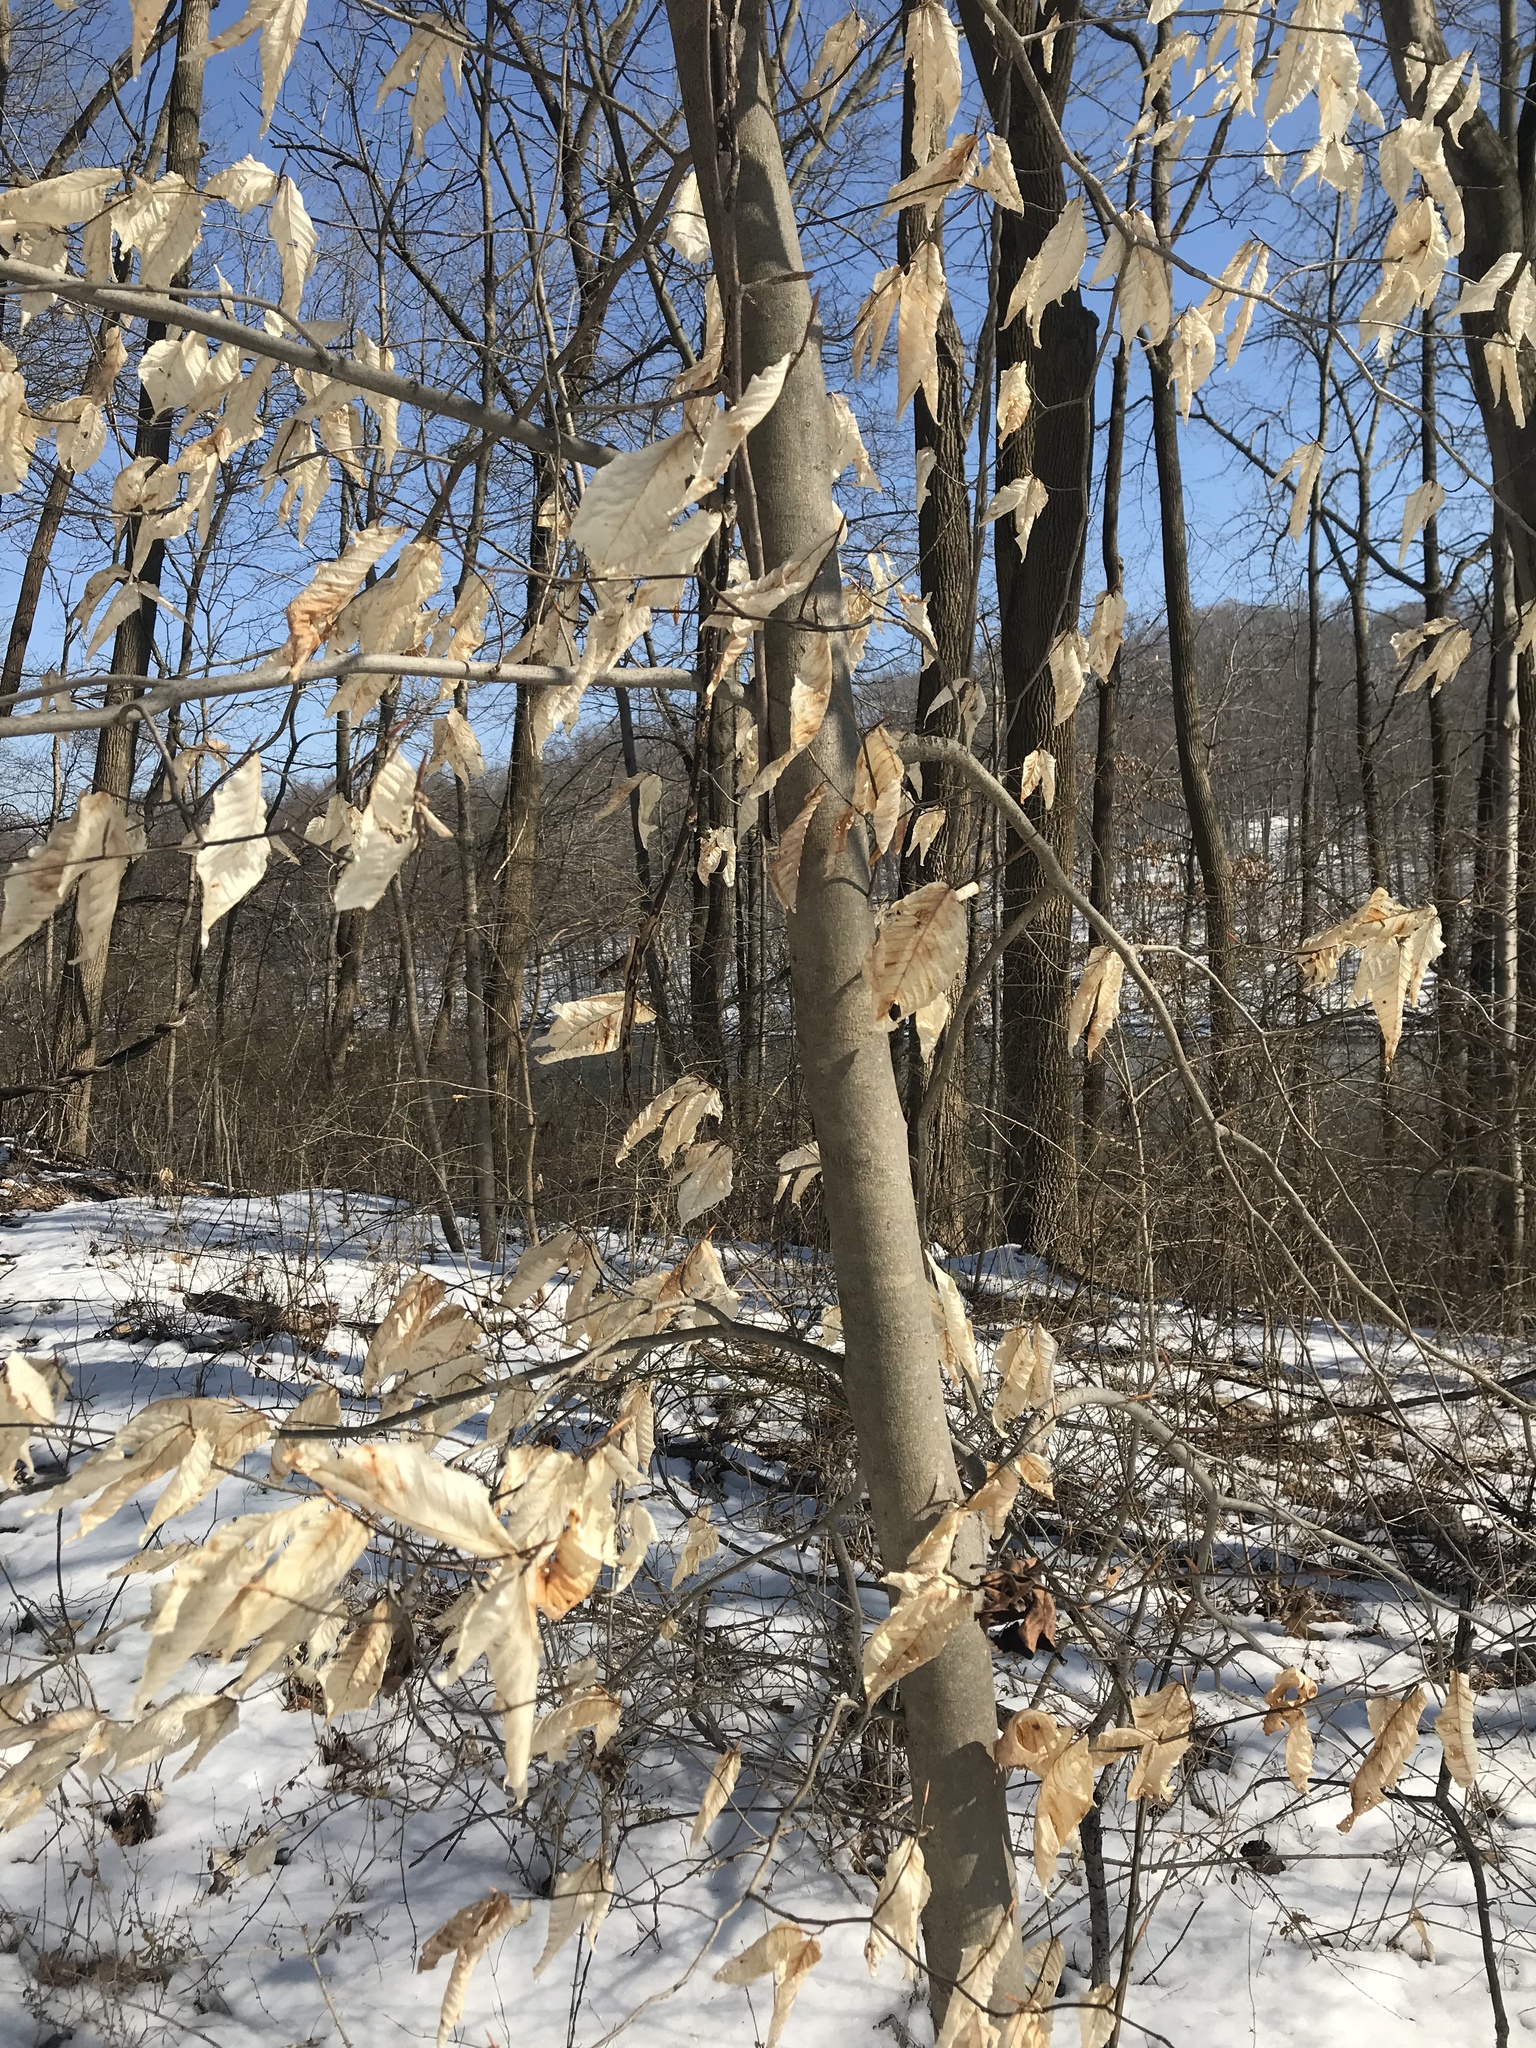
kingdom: Plantae
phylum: Tracheophyta
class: Magnoliopsida
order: Fagales
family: Fagaceae
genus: Fagus
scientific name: Fagus grandifolia
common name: American beech
